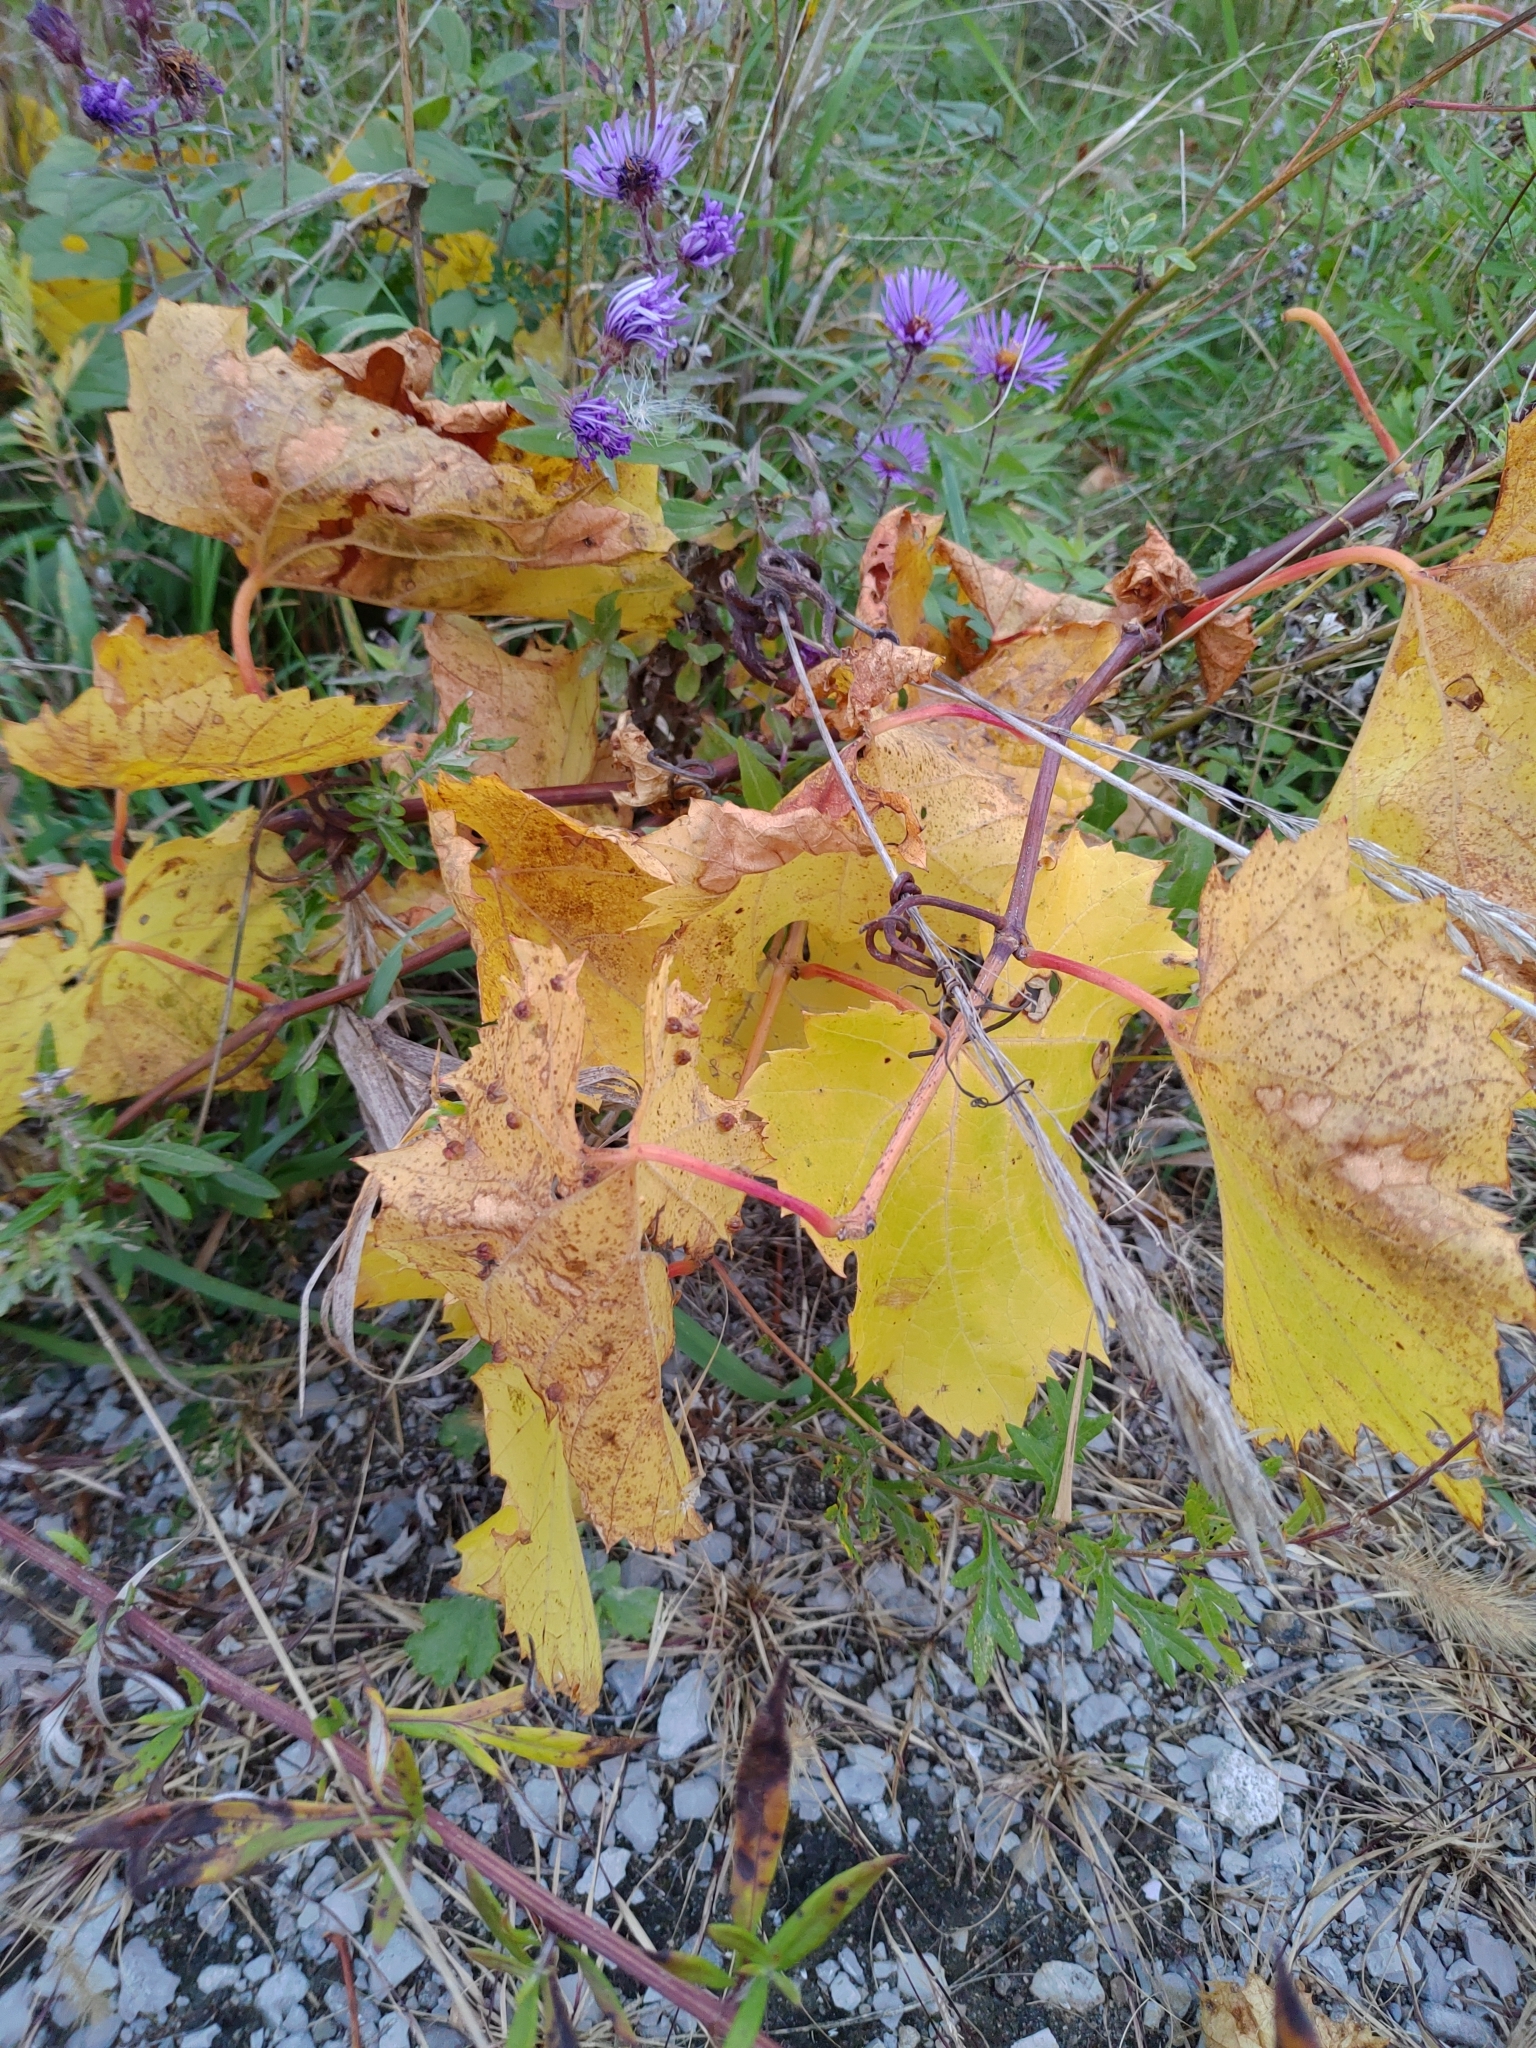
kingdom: Plantae
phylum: Tracheophyta
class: Magnoliopsida
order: Vitales
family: Vitaceae
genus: Vitis
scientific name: Vitis riparia
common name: Frost grape
